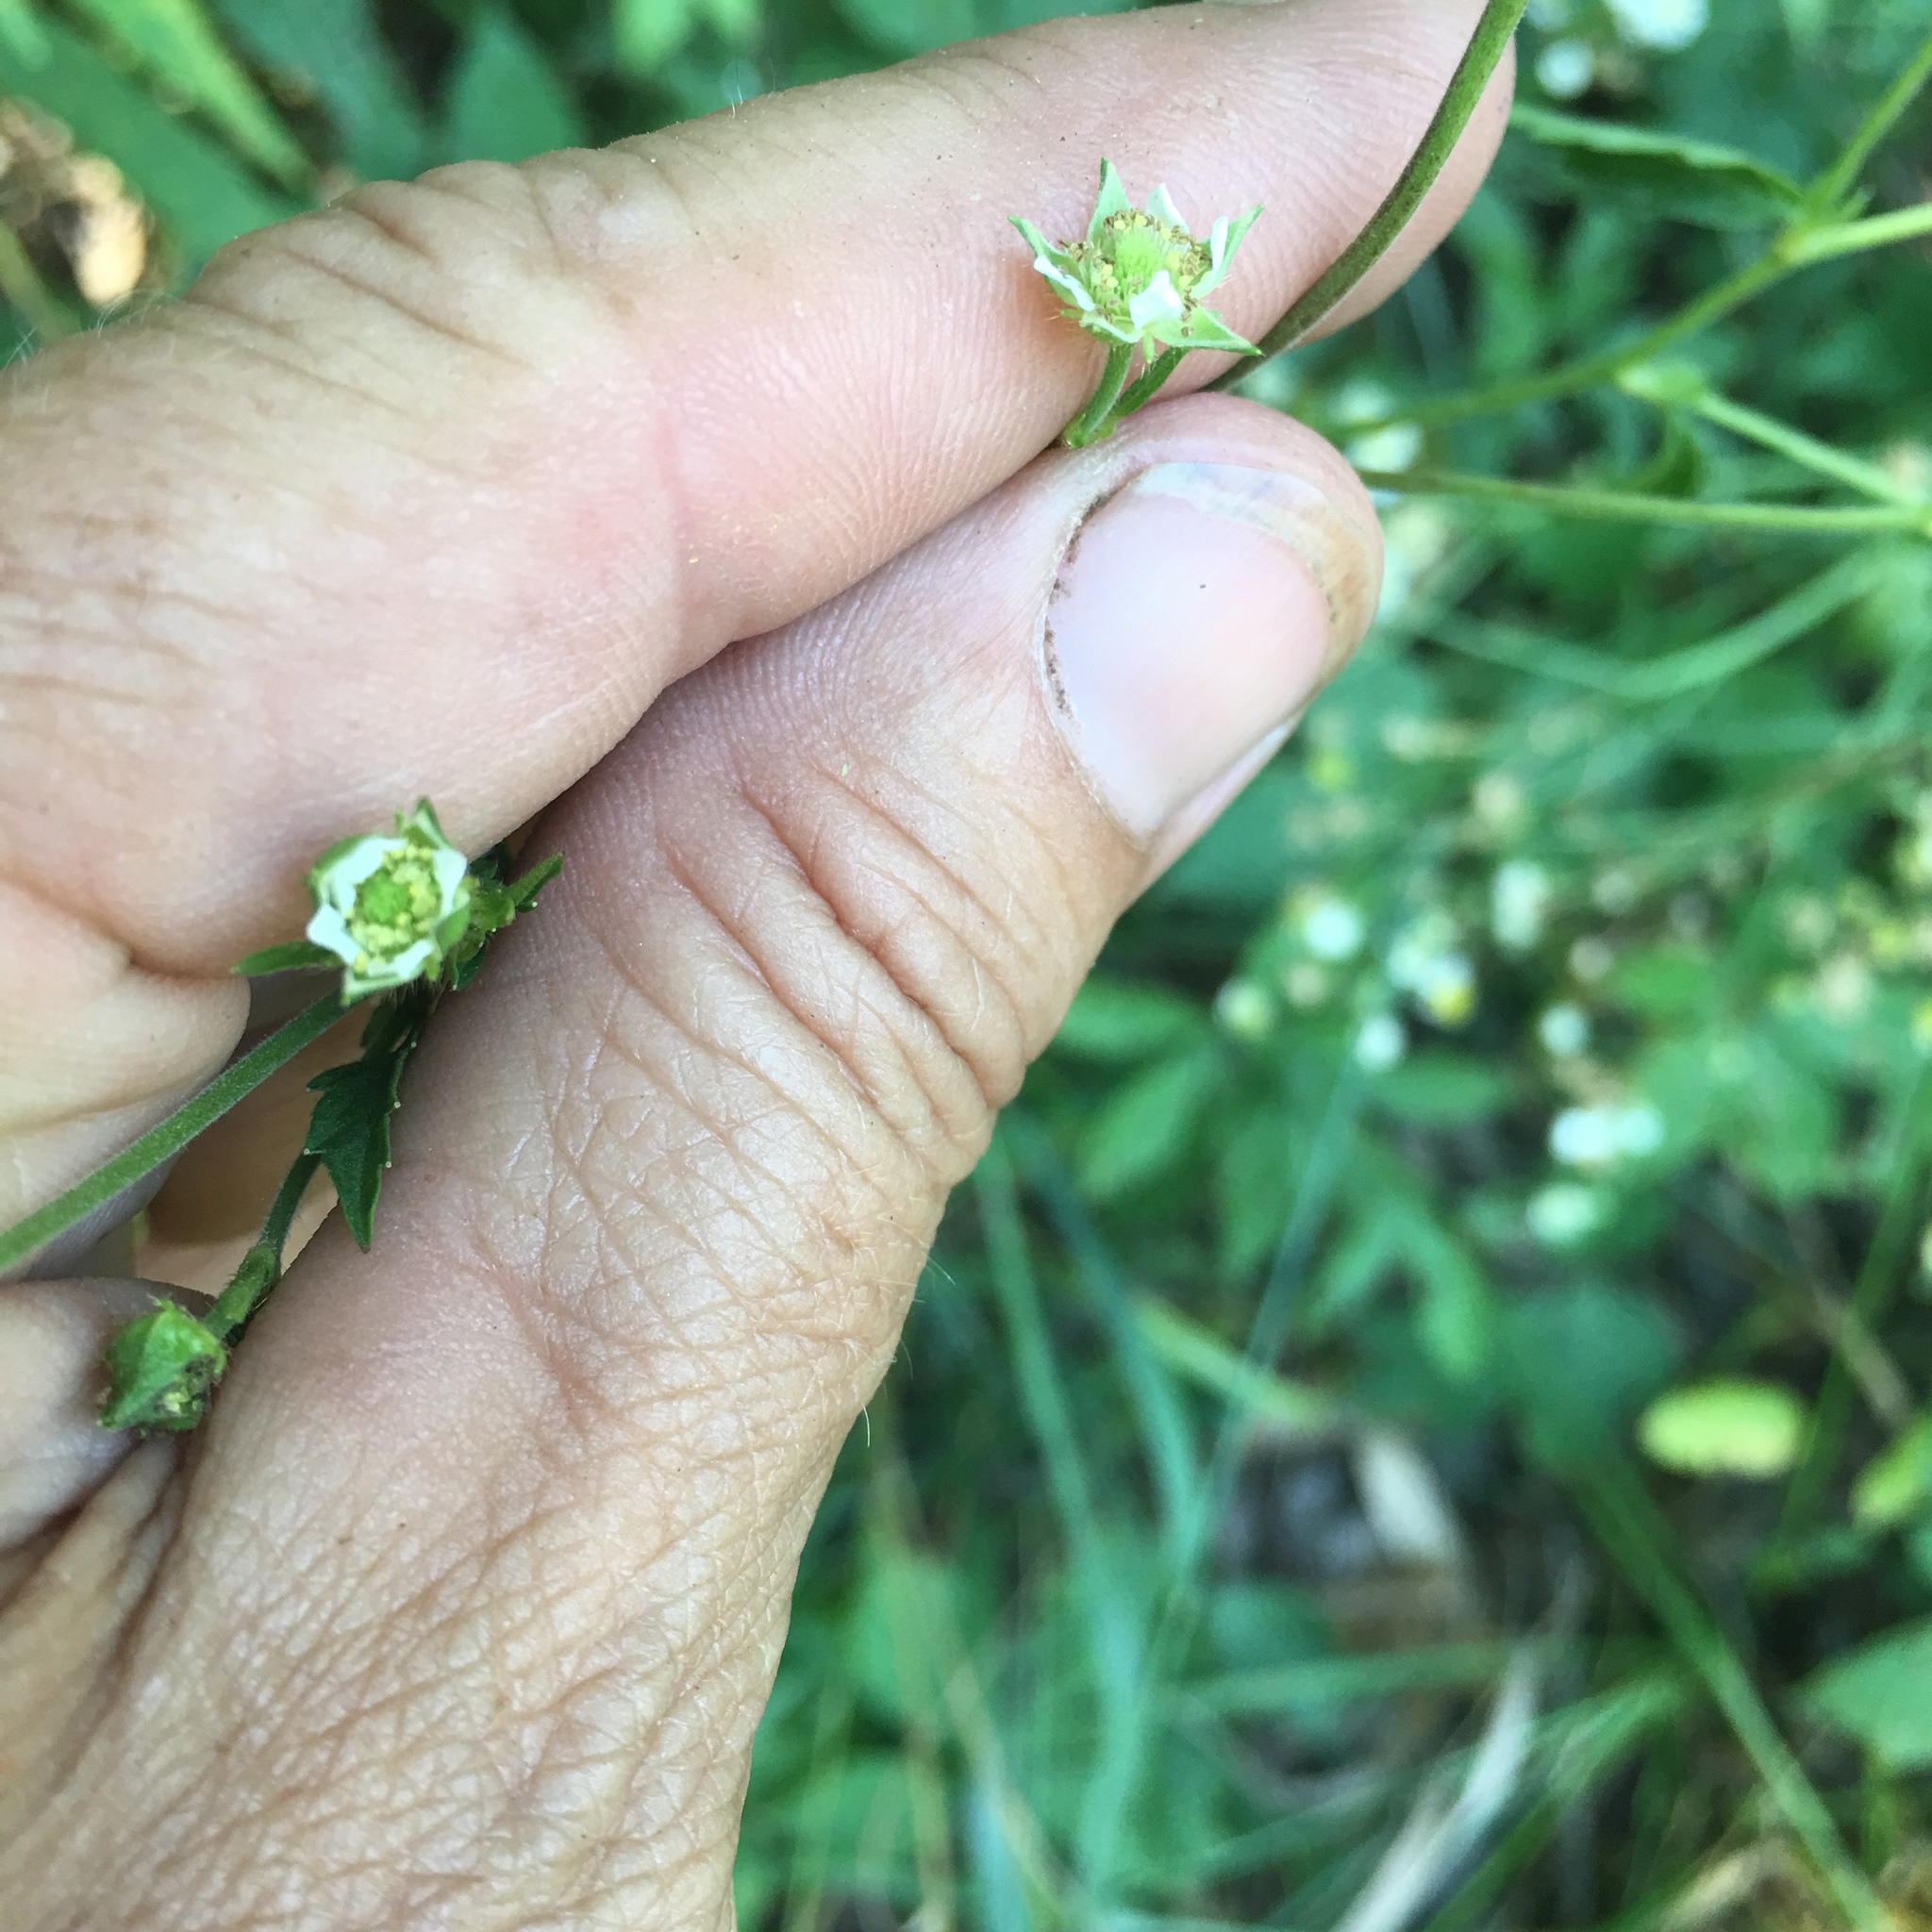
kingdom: Plantae
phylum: Tracheophyta
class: Magnoliopsida
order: Rosales
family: Rosaceae
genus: Geum
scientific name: Geum canadense
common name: White avens
